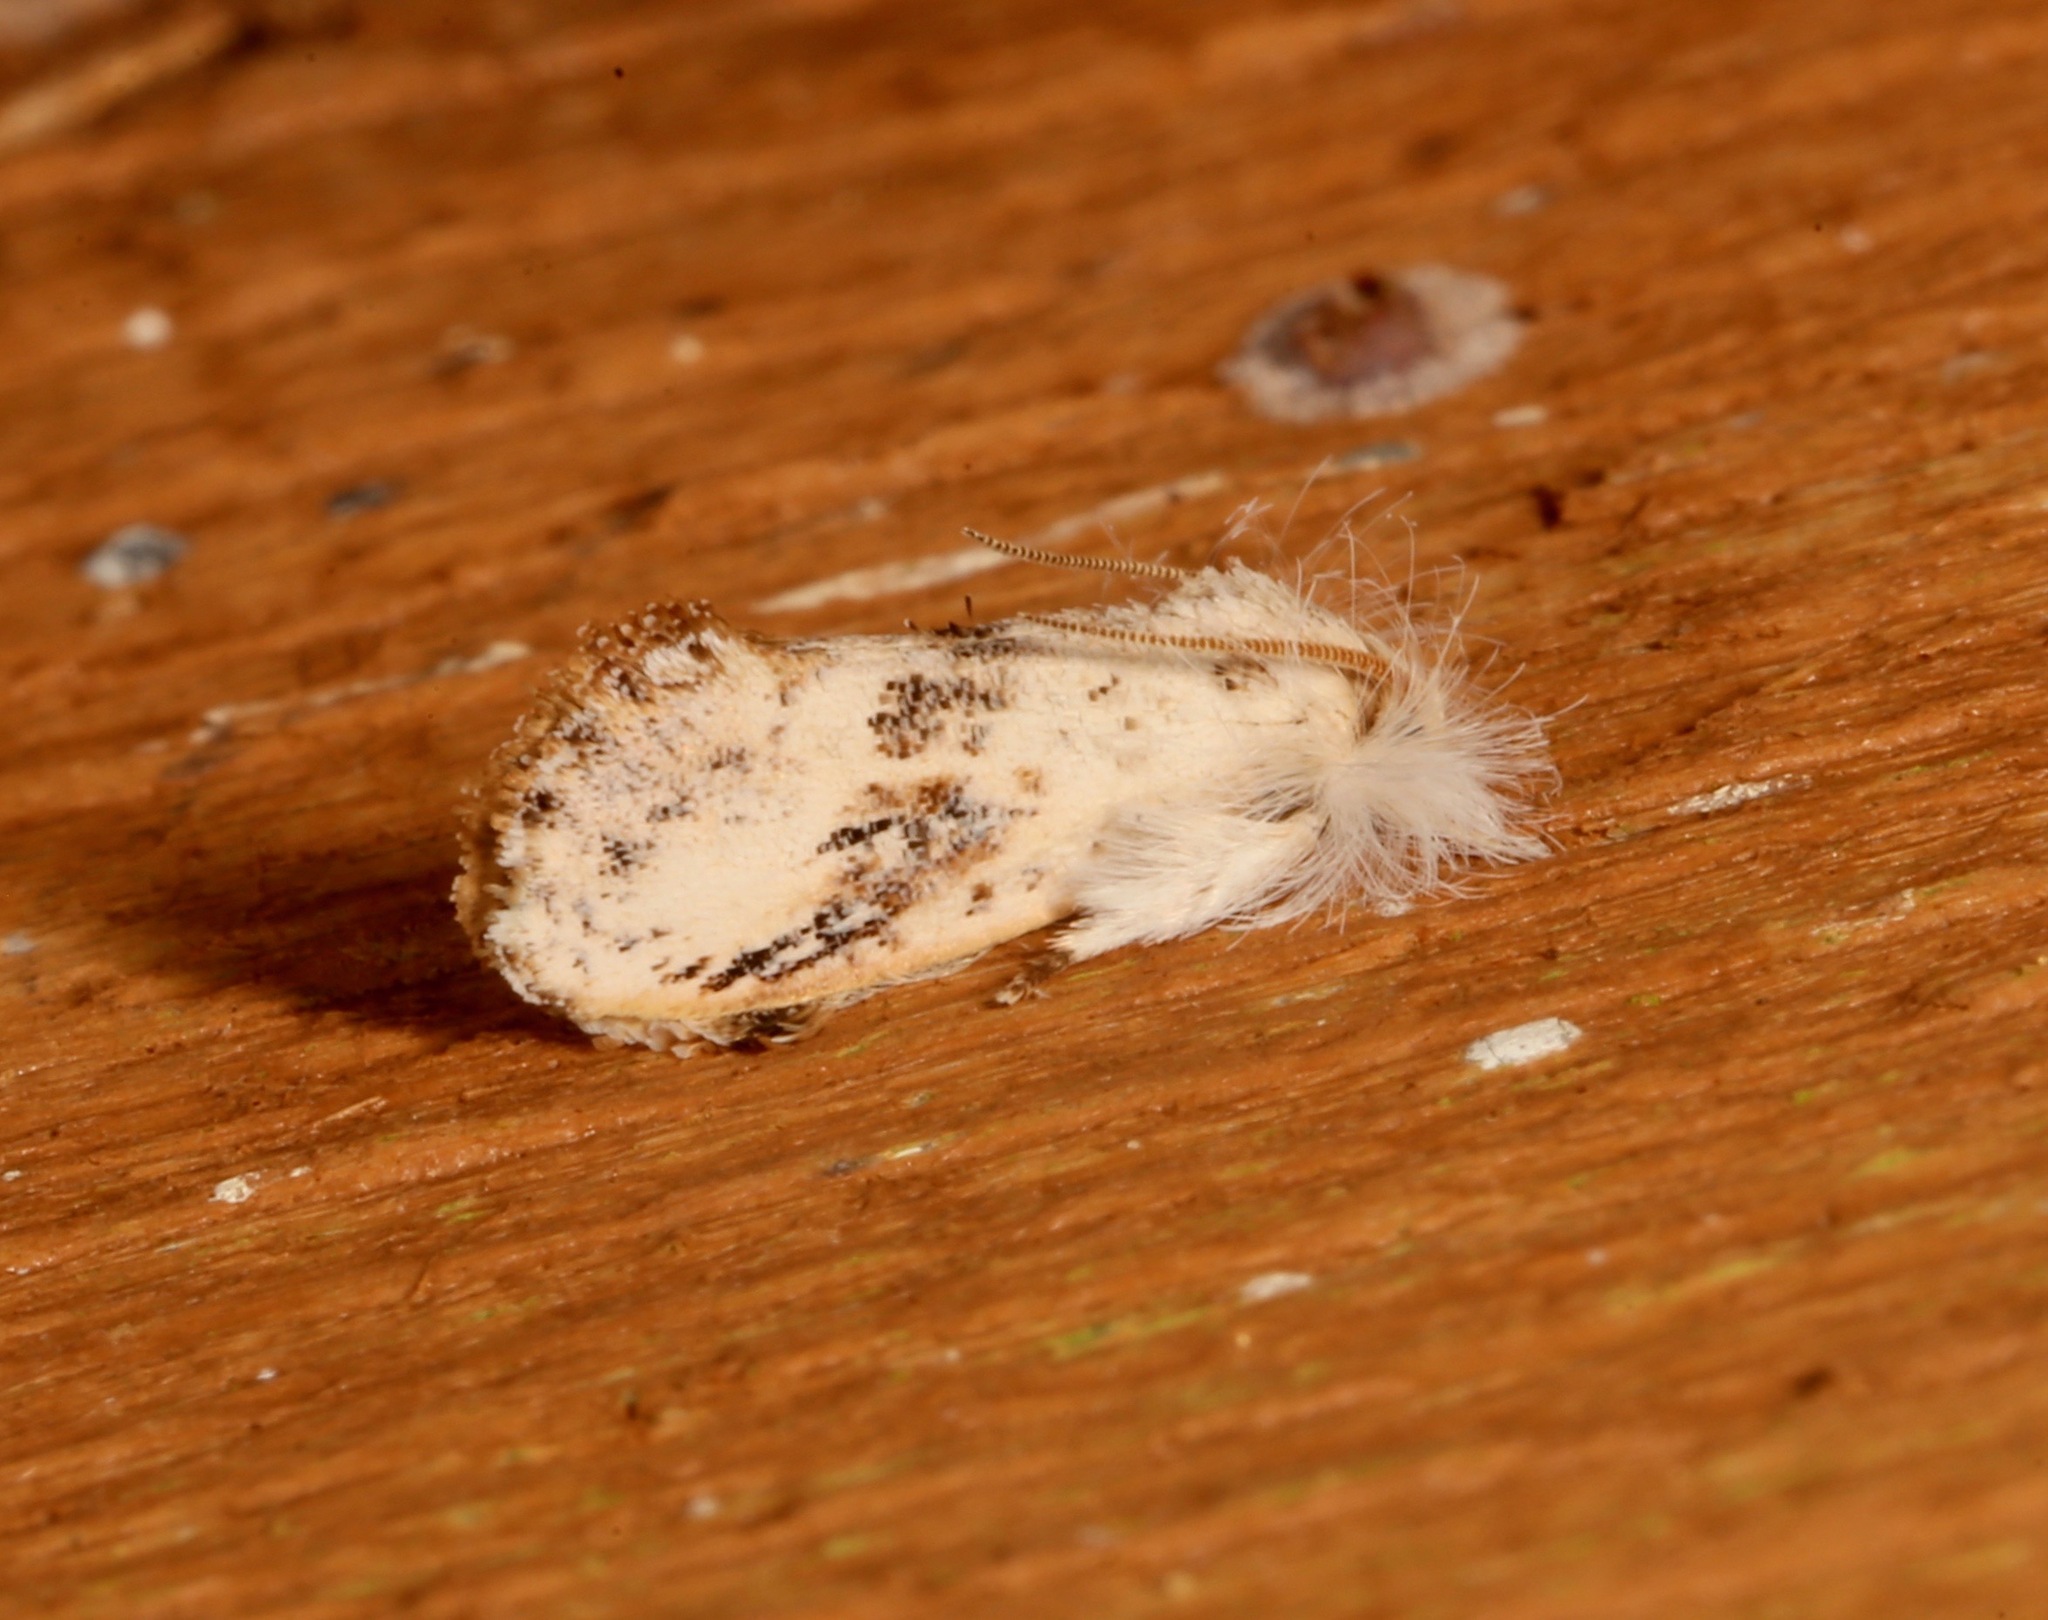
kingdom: Animalia
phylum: Arthropoda
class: Insecta
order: Lepidoptera
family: Tineidae
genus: Acrolophus
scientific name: Acrolophus mycetophagus
